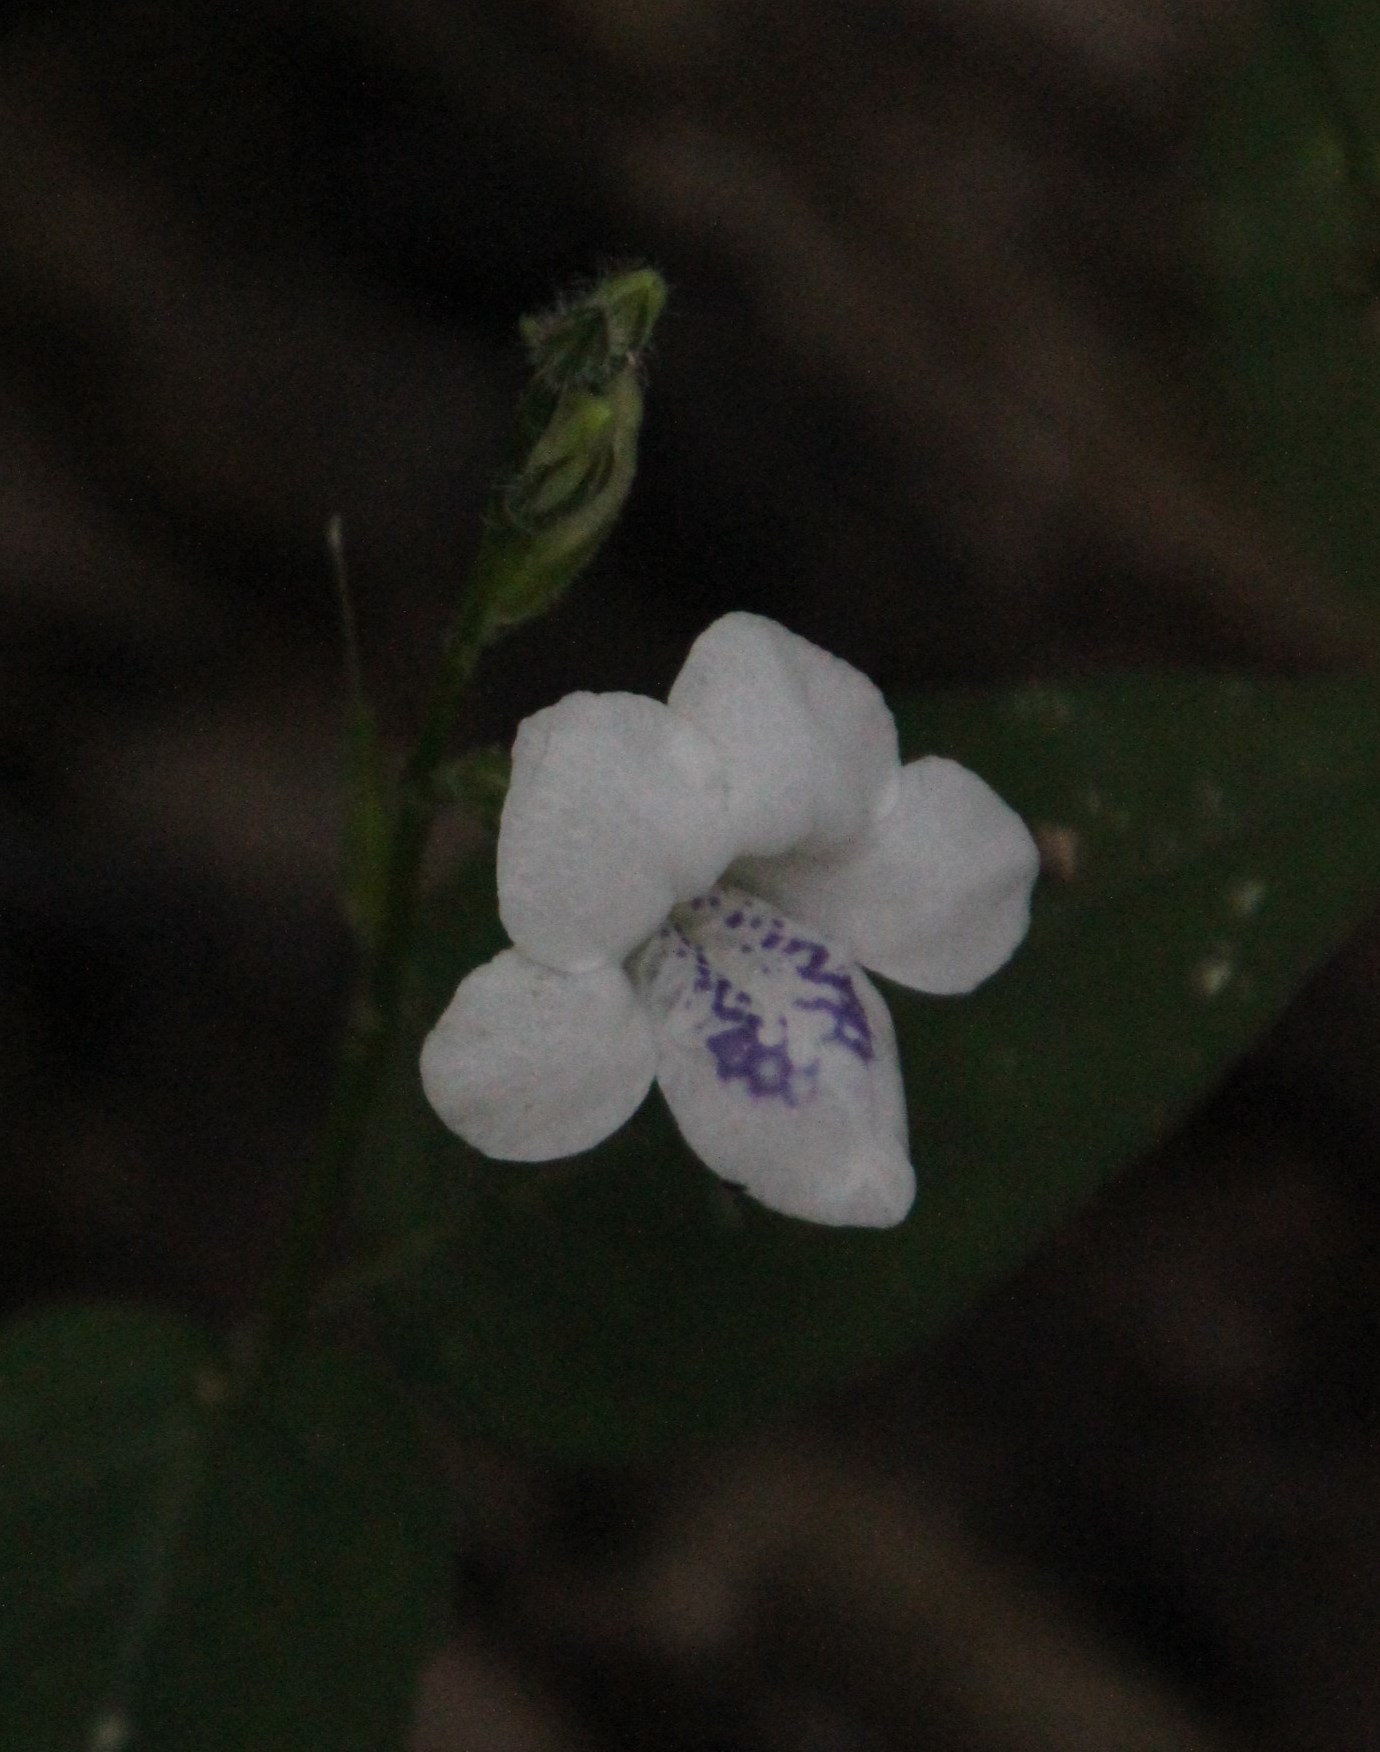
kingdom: Plantae
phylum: Tracheophyta
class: Magnoliopsida
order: Lamiales
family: Acanthaceae
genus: Asystasia
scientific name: Asystasia intrusa
